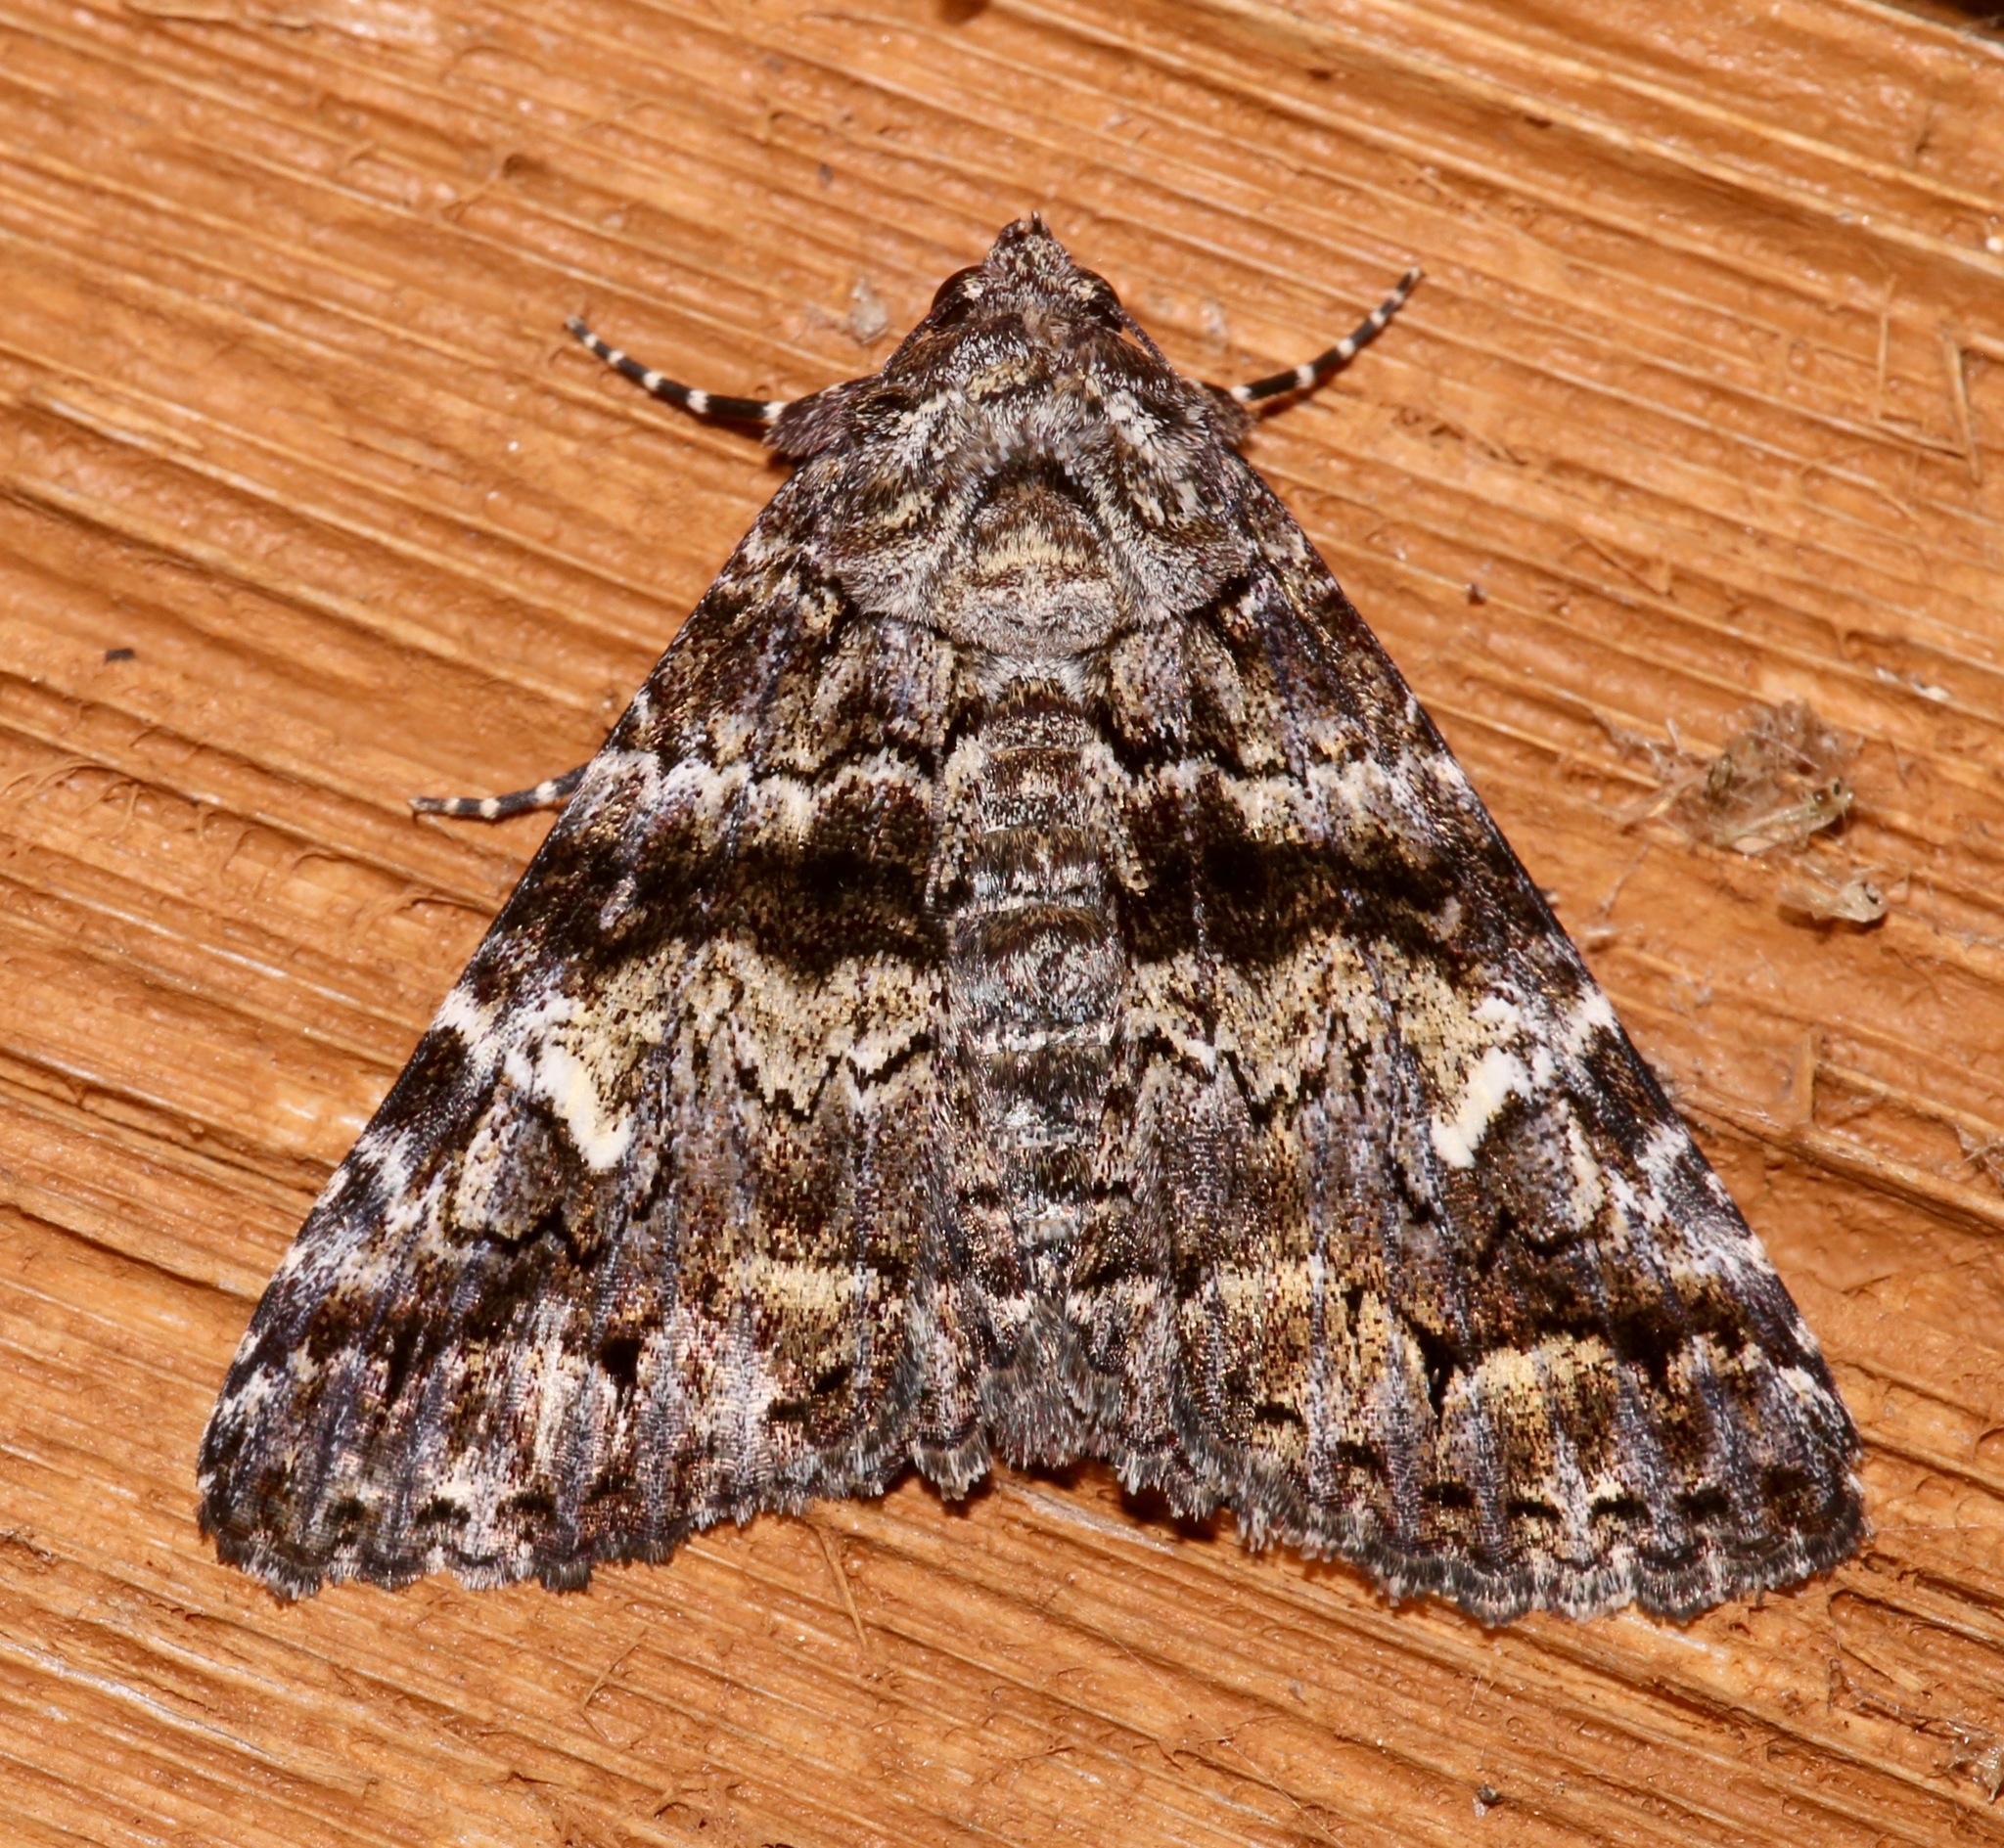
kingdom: Animalia
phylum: Arthropoda
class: Insecta
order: Lepidoptera
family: Erebidae
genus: Metria
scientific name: Metria amella
